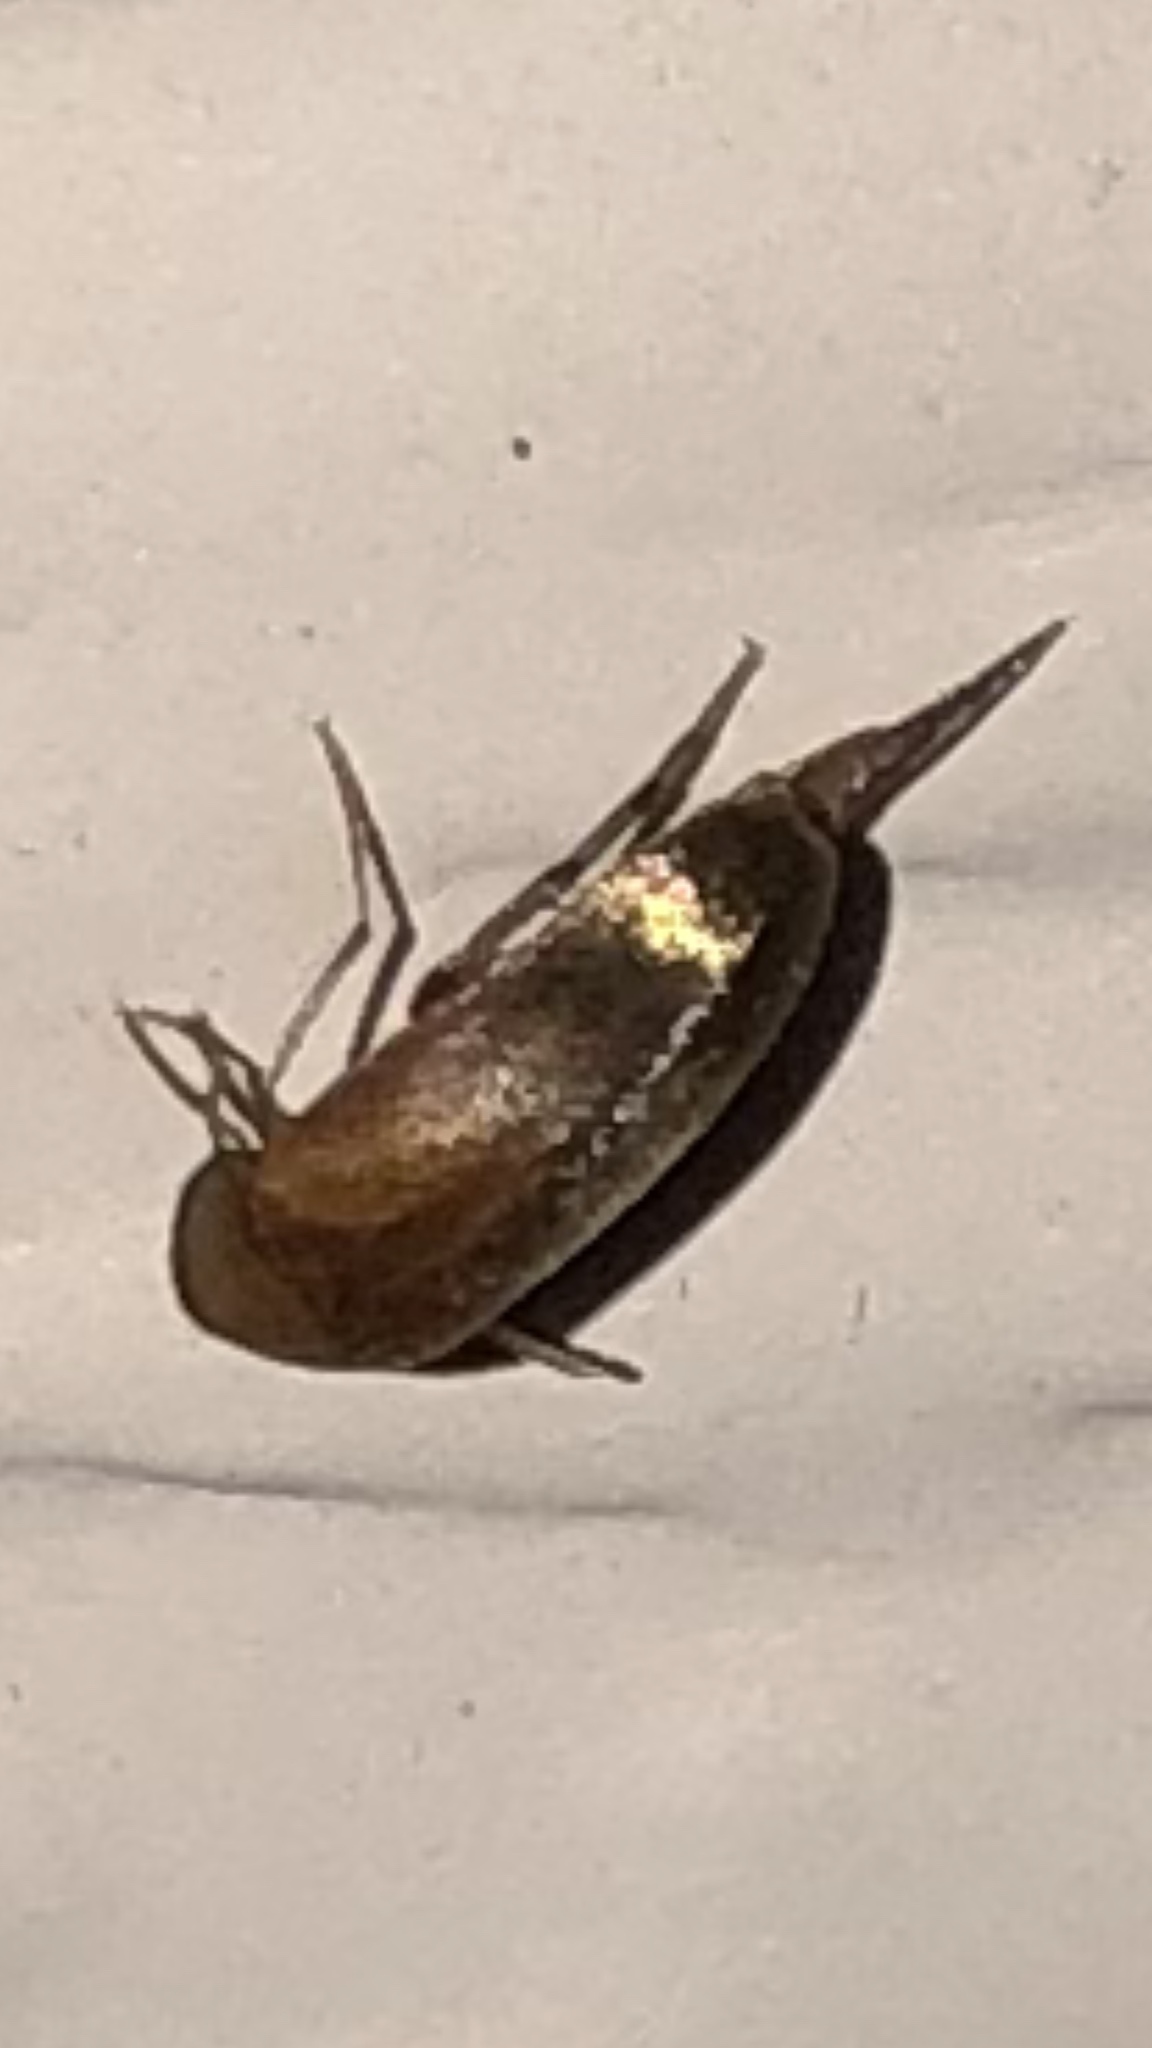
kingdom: Animalia
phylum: Arthropoda
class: Insecta
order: Coleoptera
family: Mordellidae
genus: Mordellistena
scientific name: Mordellistena subfuscus
